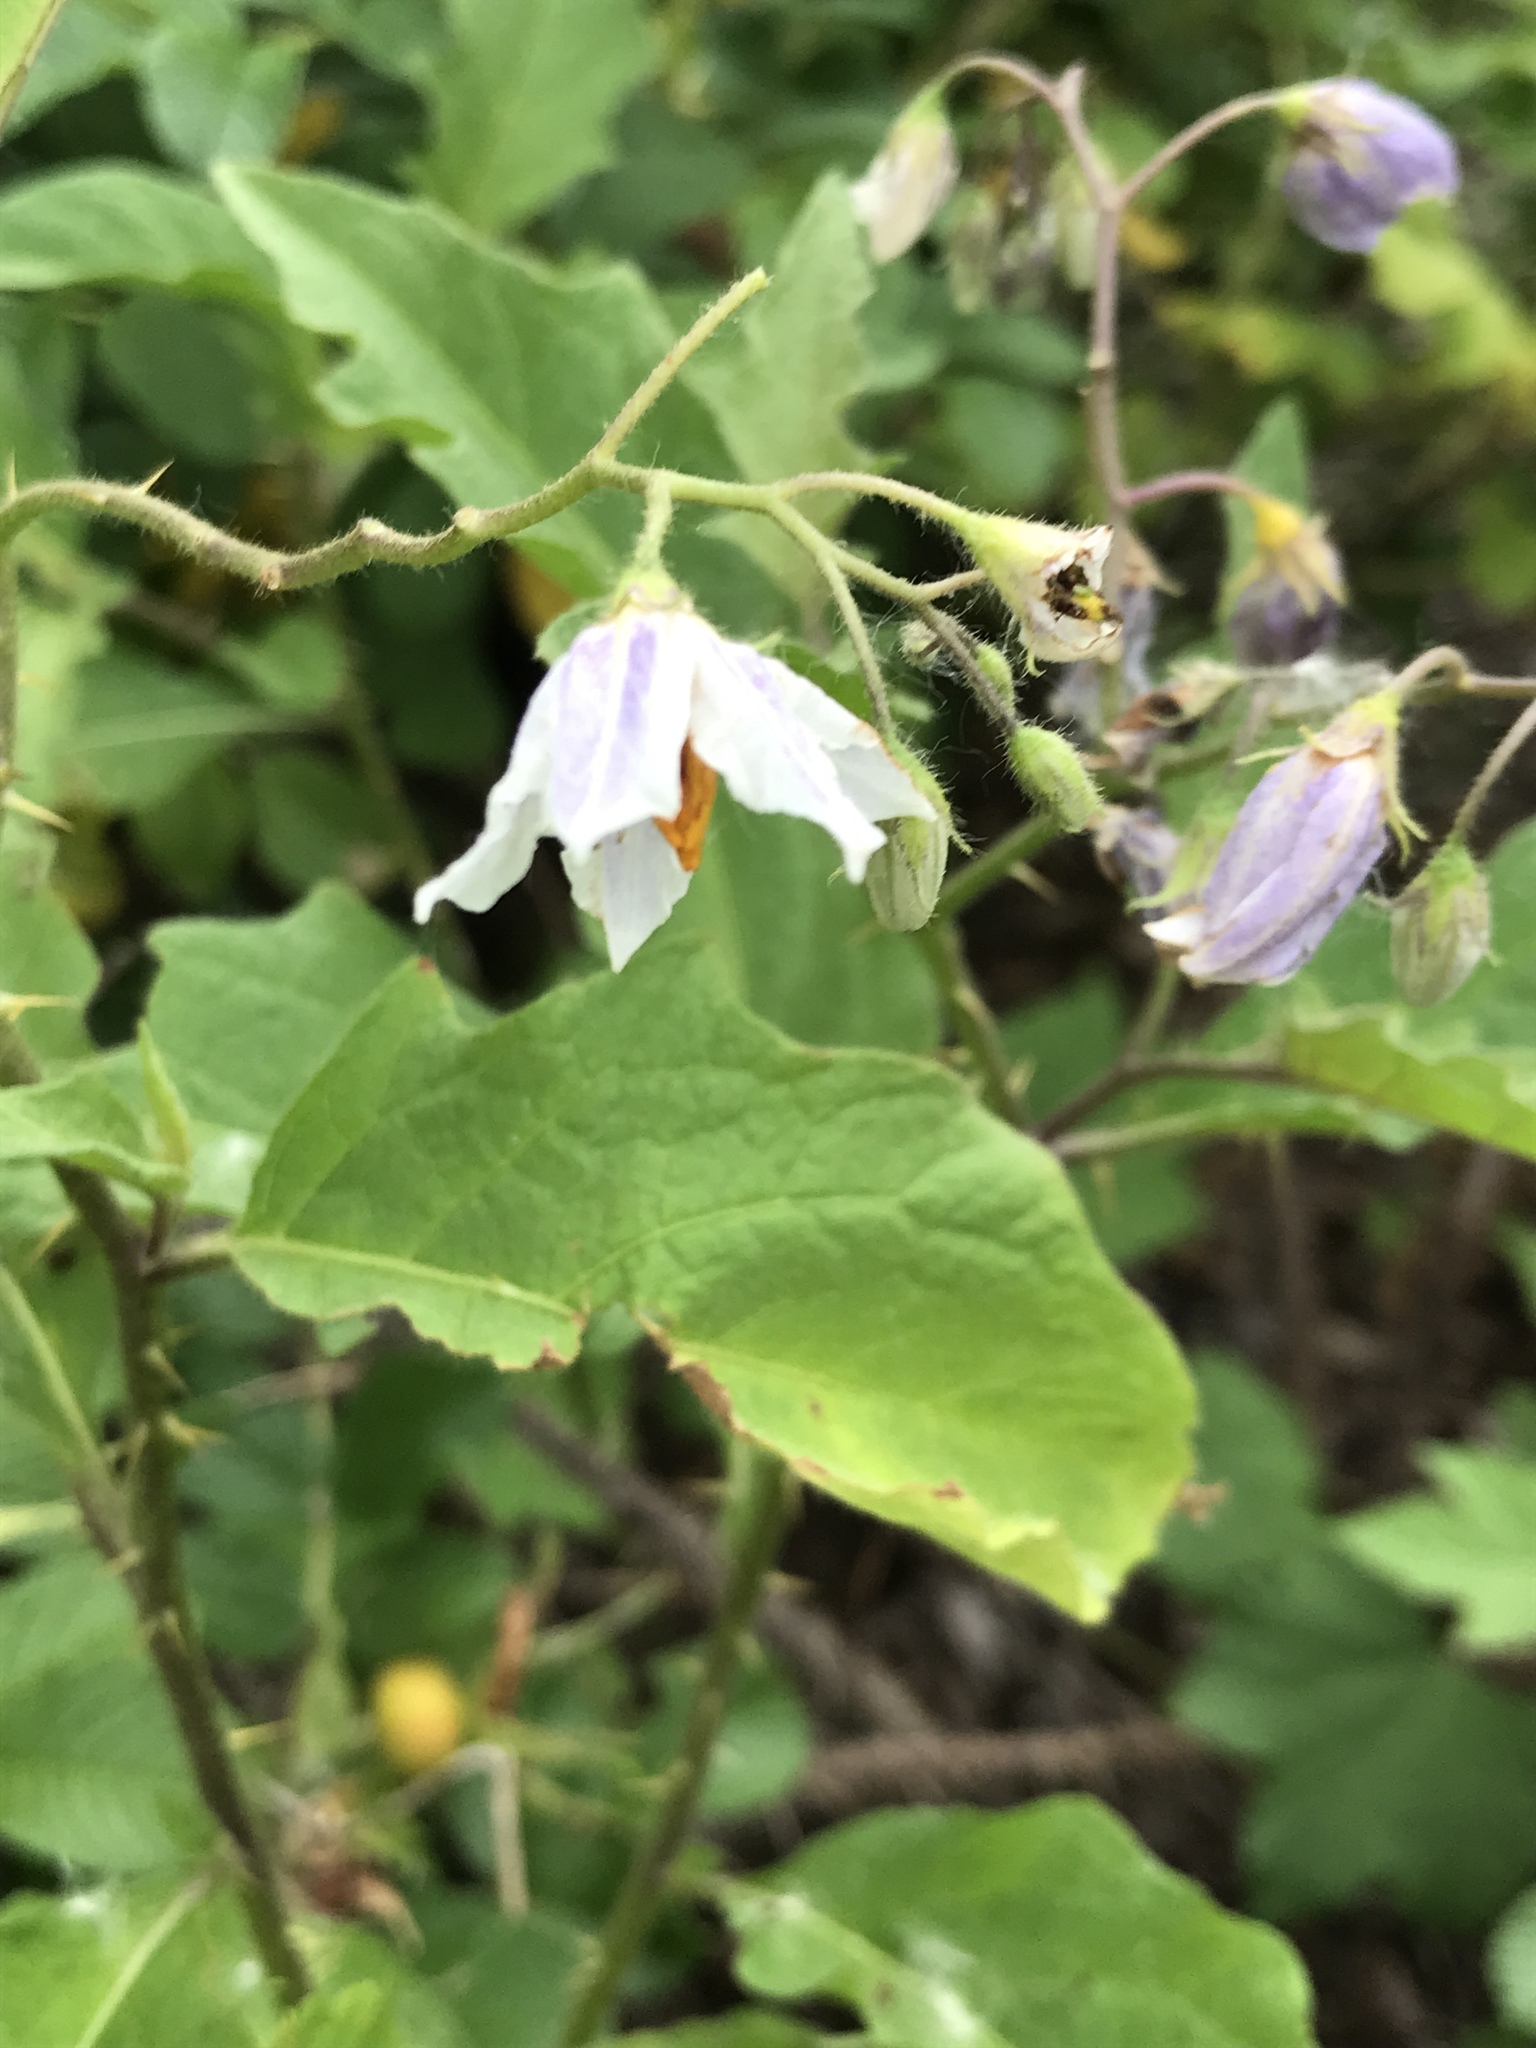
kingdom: Plantae
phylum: Tracheophyta
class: Magnoliopsida
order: Solanales
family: Solanaceae
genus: Solanum
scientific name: Solanum carolinense
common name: Horse-nettle
